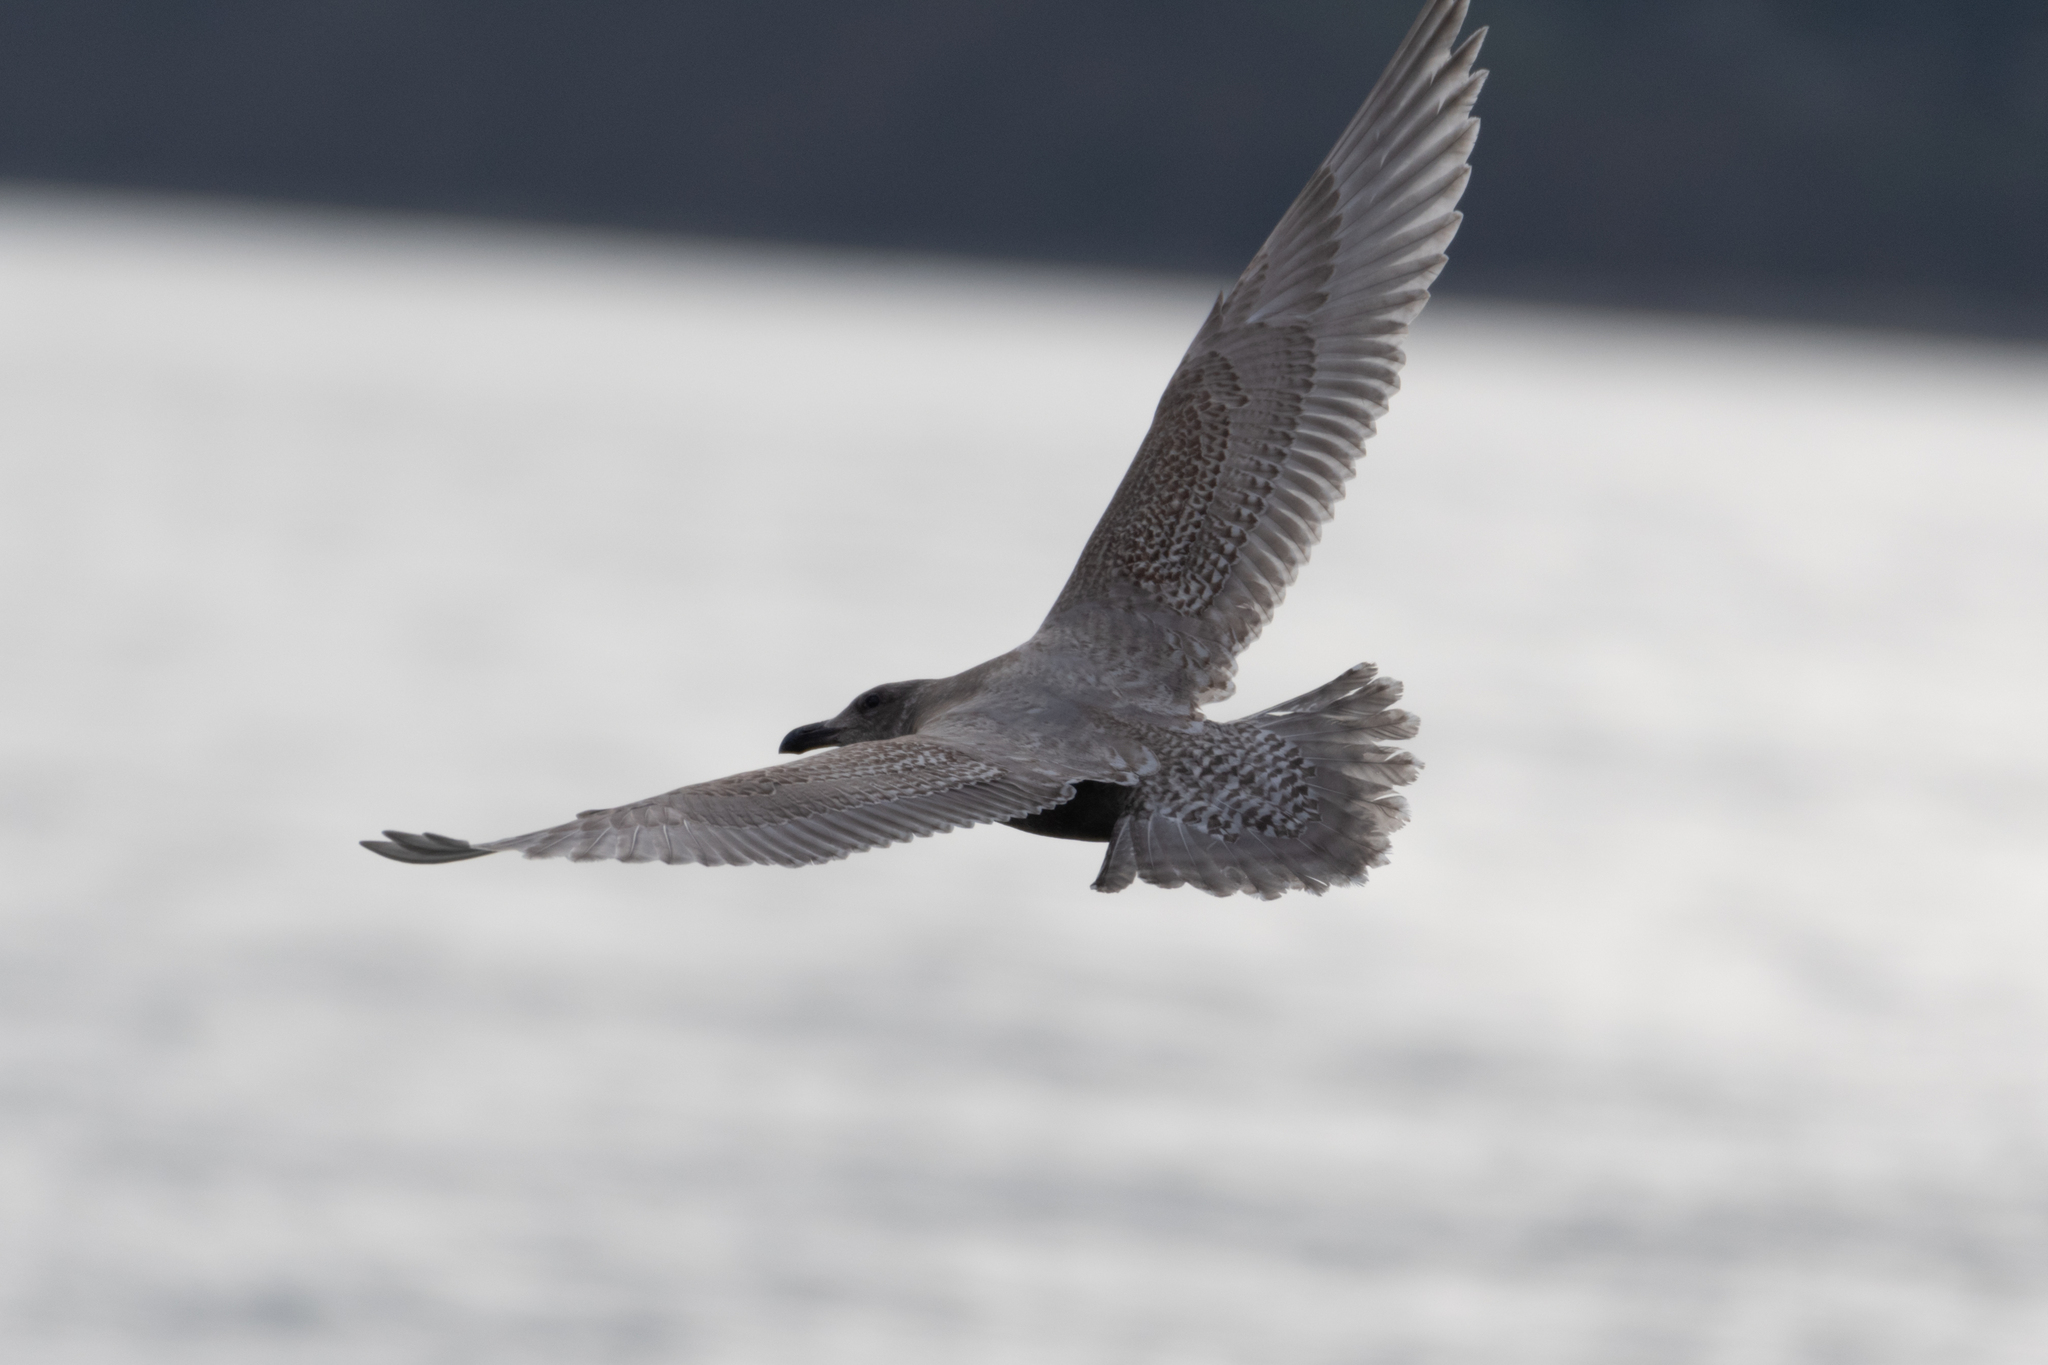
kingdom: Animalia
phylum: Chordata
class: Aves
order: Charadriiformes
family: Laridae
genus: Larus
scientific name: Larus glaucescens
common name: Glaucous-winged gull
